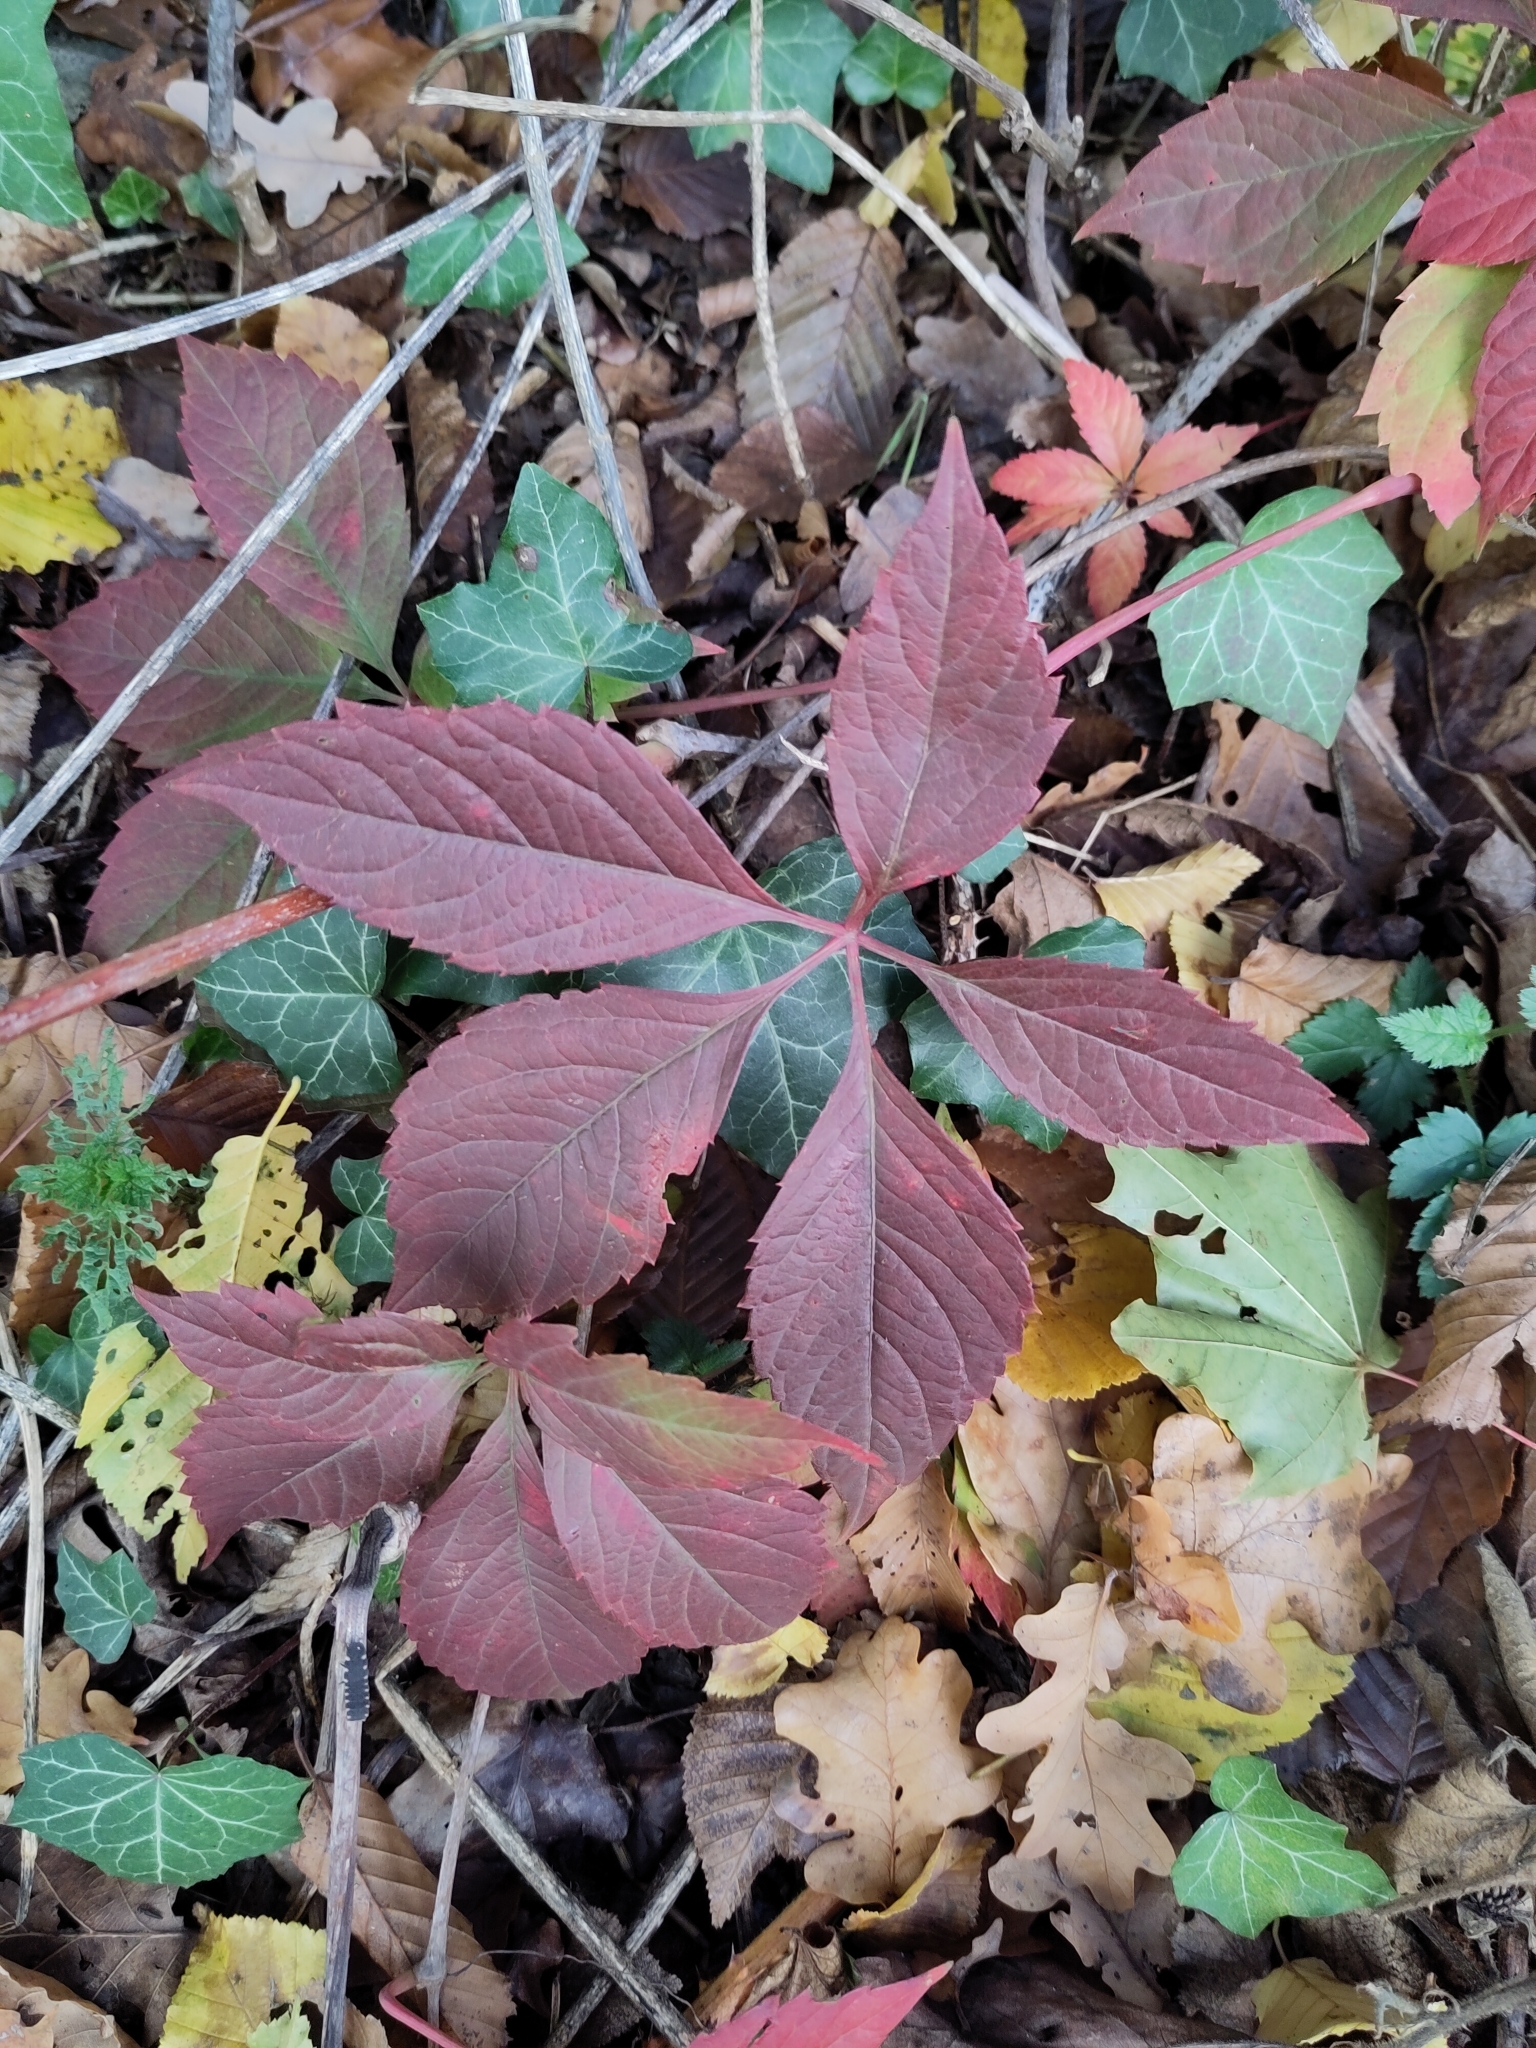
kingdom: Plantae
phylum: Tracheophyta
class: Magnoliopsida
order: Vitales
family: Vitaceae
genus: Parthenocissus
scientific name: Parthenocissus inserta
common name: False virginia-creeper
